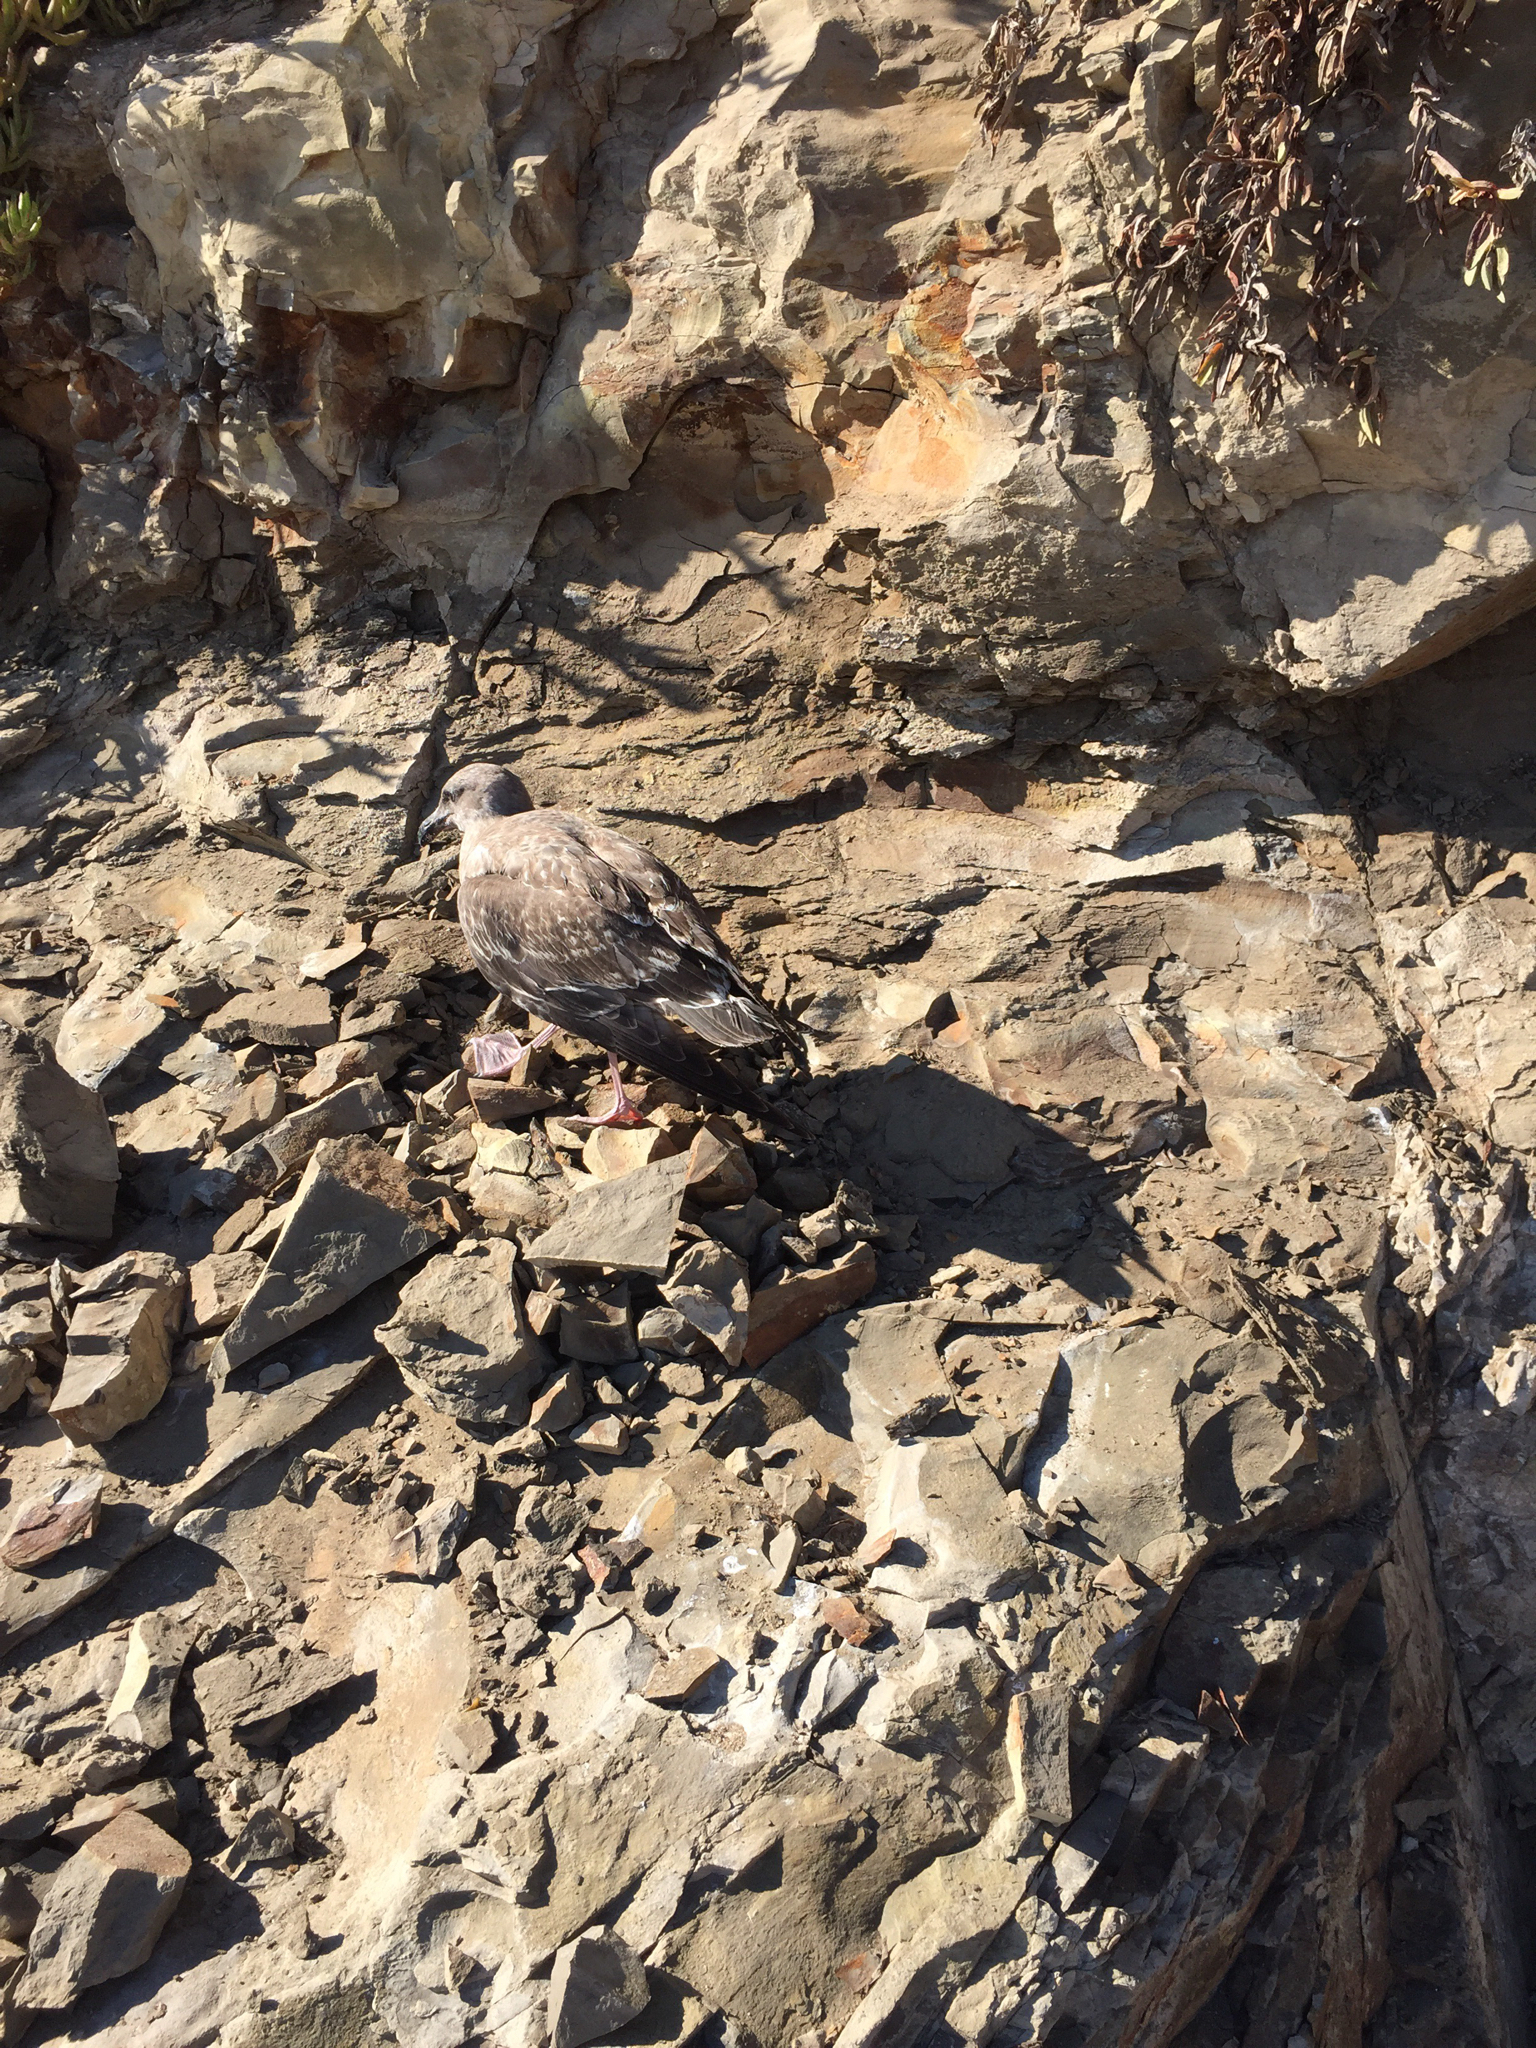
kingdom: Animalia
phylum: Chordata
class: Aves
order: Charadriiformes
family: Laridae
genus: Larus
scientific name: Larus occidentalis
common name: Western gull
